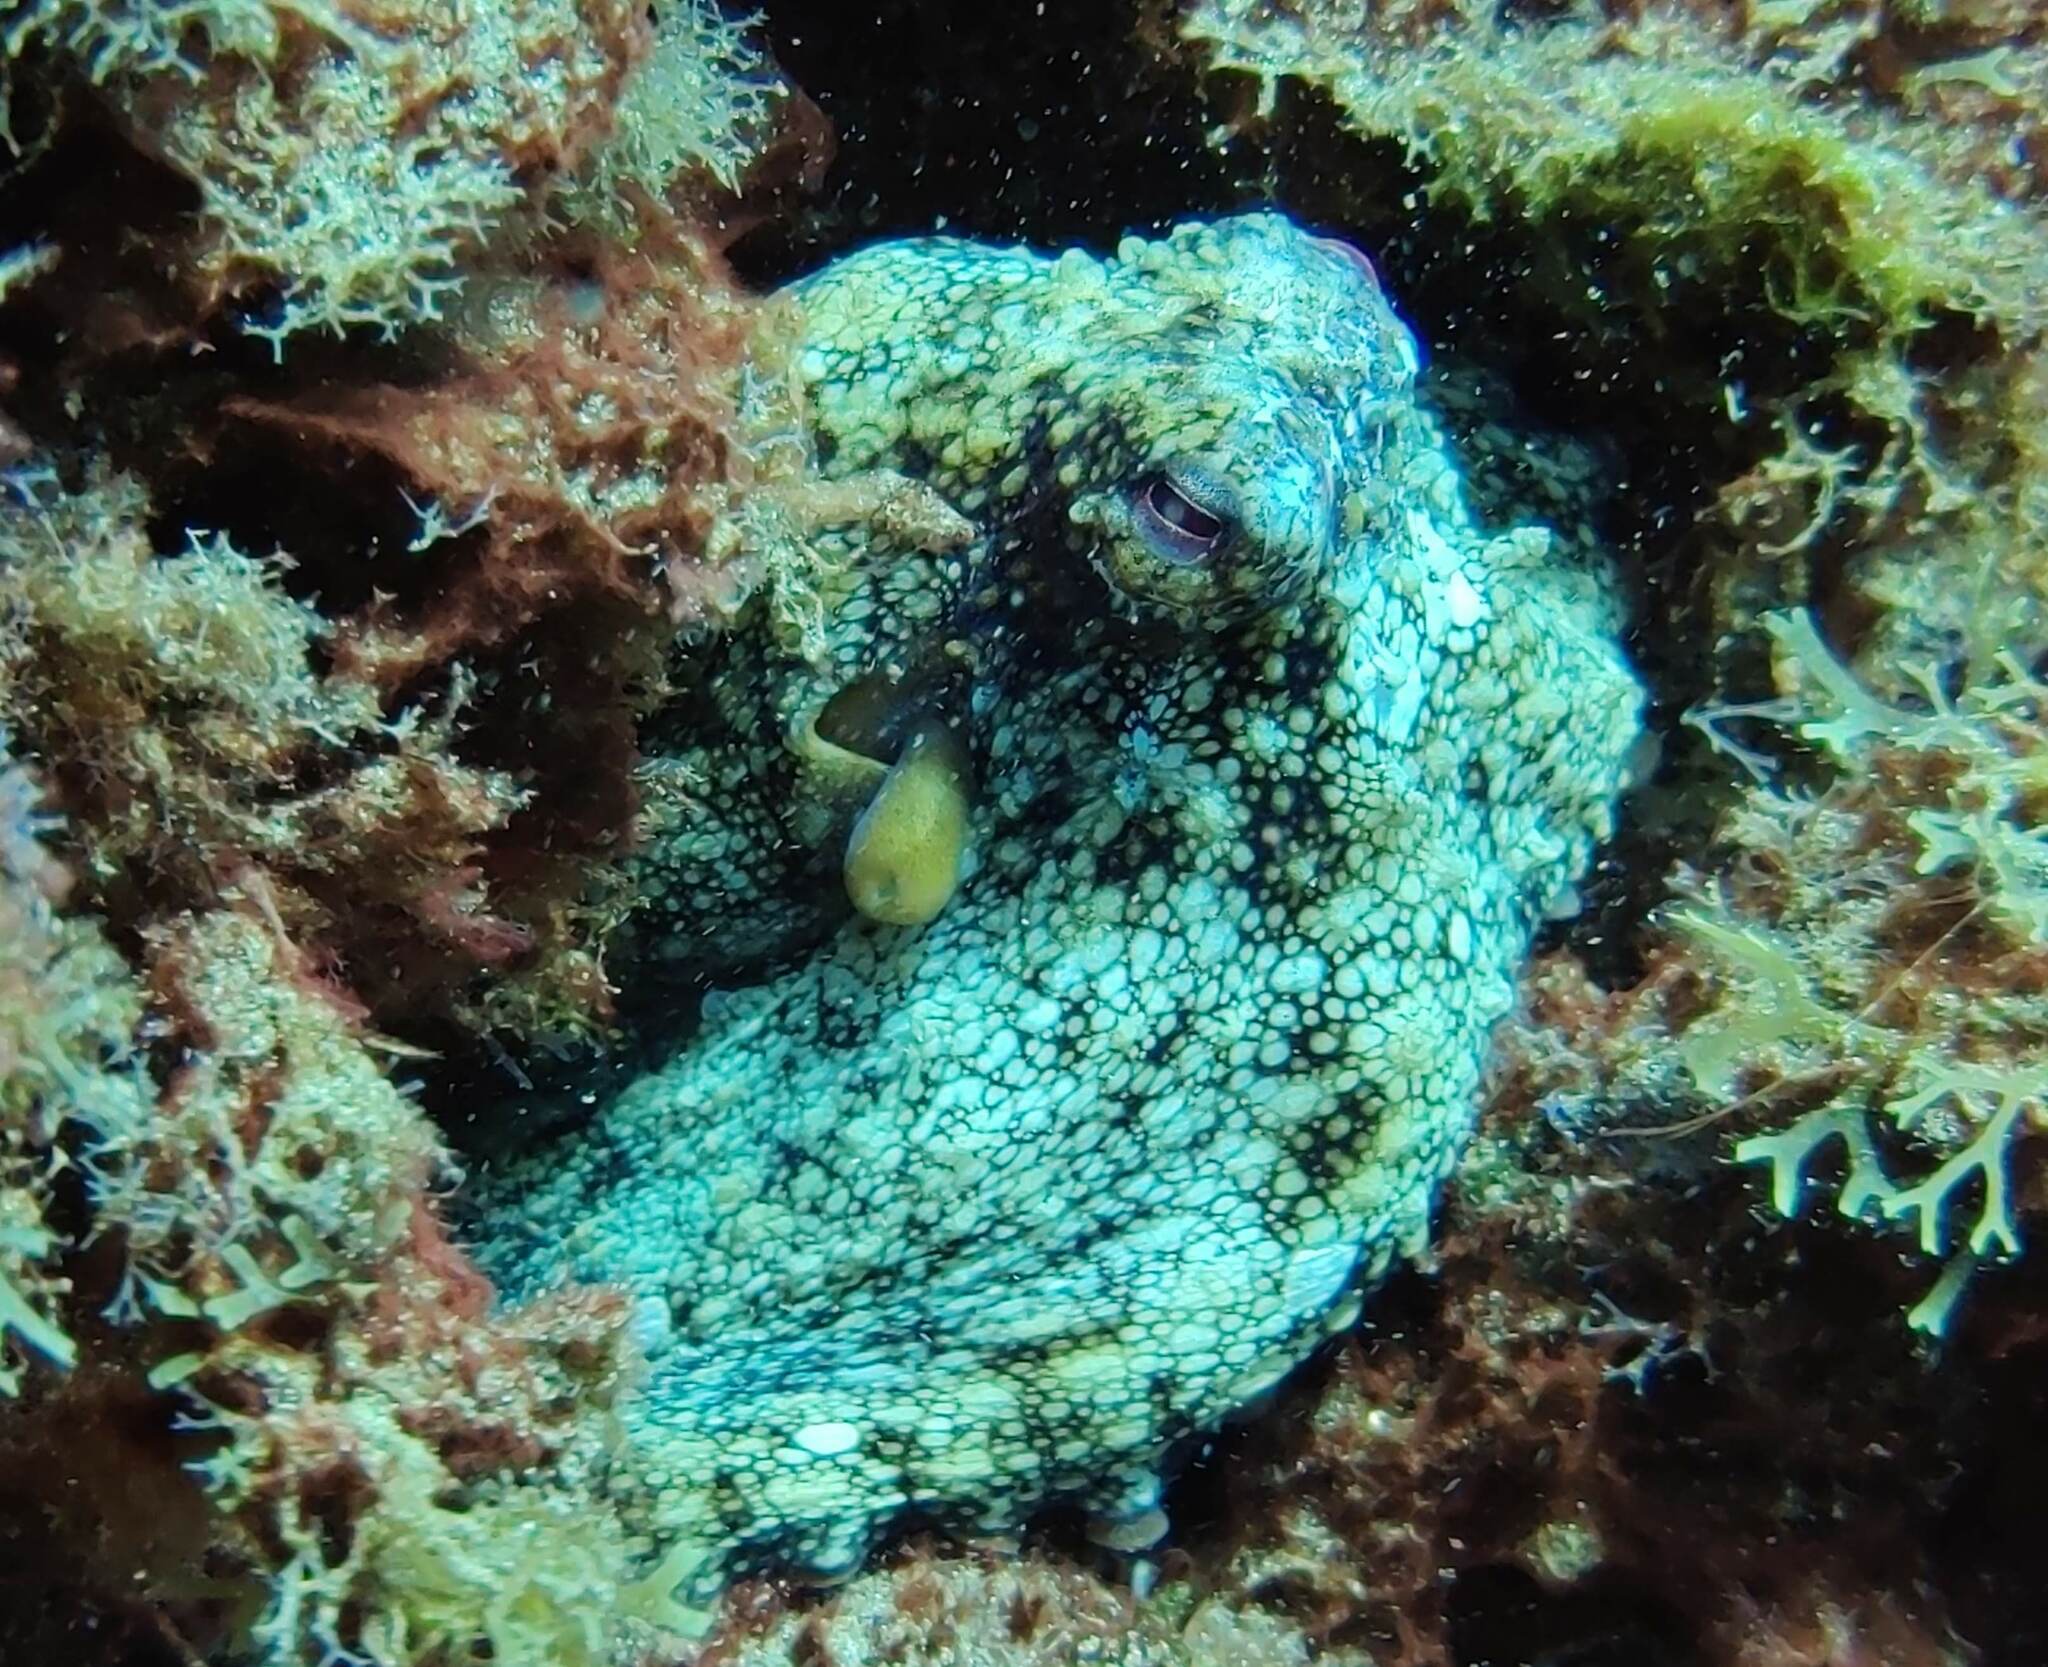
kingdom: Animalia
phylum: Mollusca
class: Cephalopoda
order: Octopoda
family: Octopodidae
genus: Octopus
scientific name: Octopus vulgaris
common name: Common octopus
